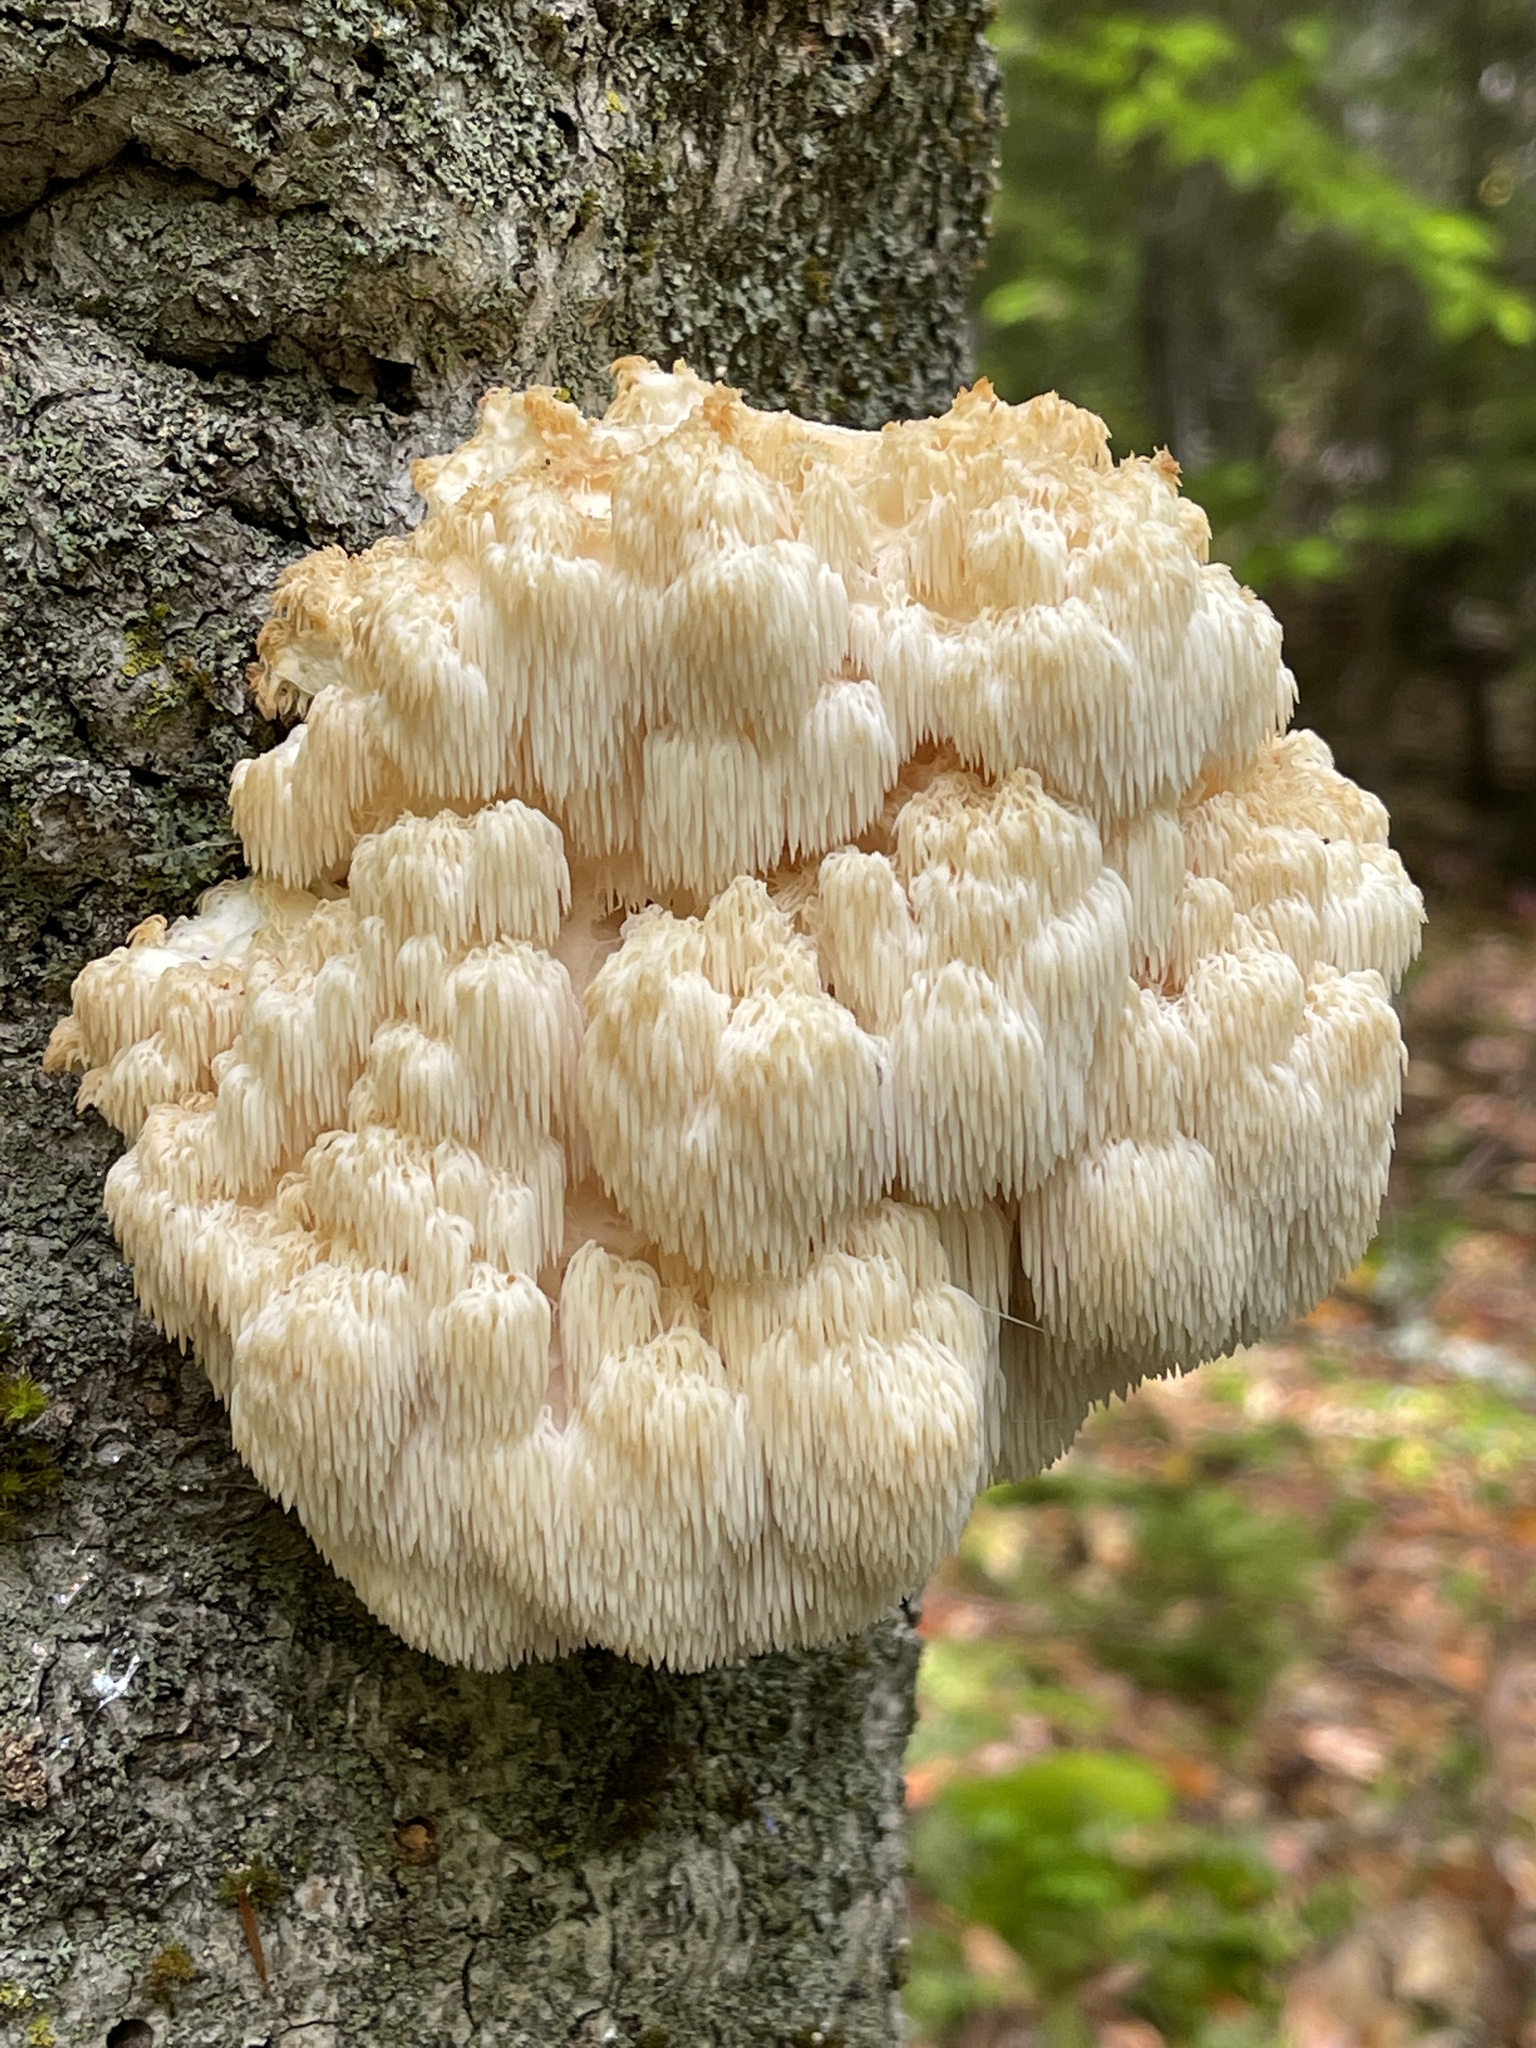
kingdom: Fungi
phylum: Basidiomycota
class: Agaricomycetes
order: Russulales
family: Hericiaceae
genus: Hericium
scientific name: Hericium americanum
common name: Bear's head tooth
